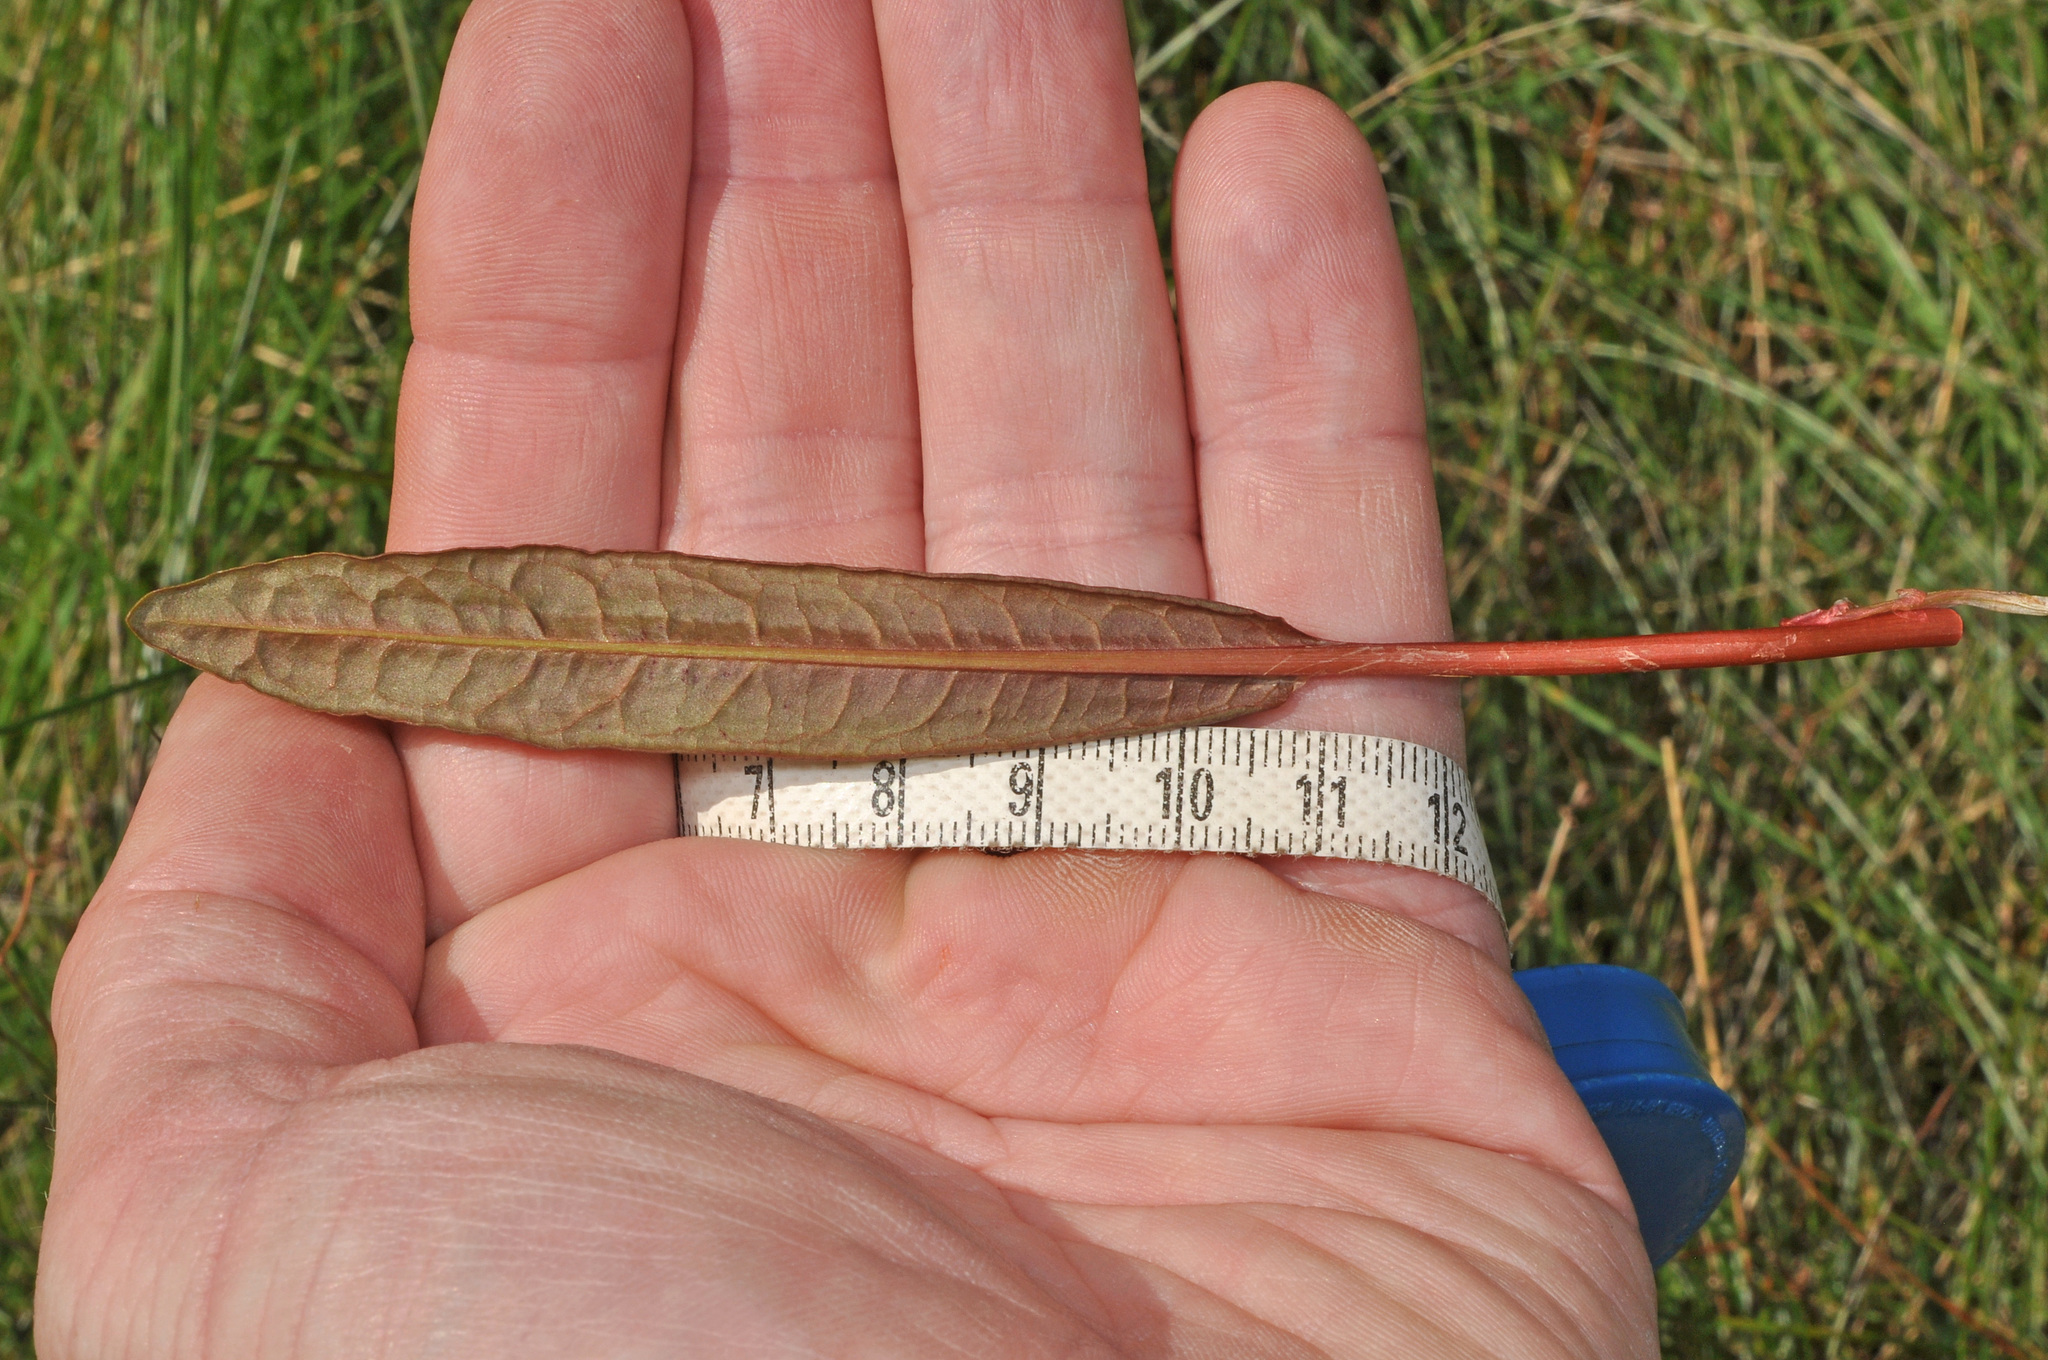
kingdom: Plantae
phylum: Tracheophyta
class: Magnoliopsida
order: Caryophyllales
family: Polygonaceae
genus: Rumex
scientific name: Rumex flexuosus
